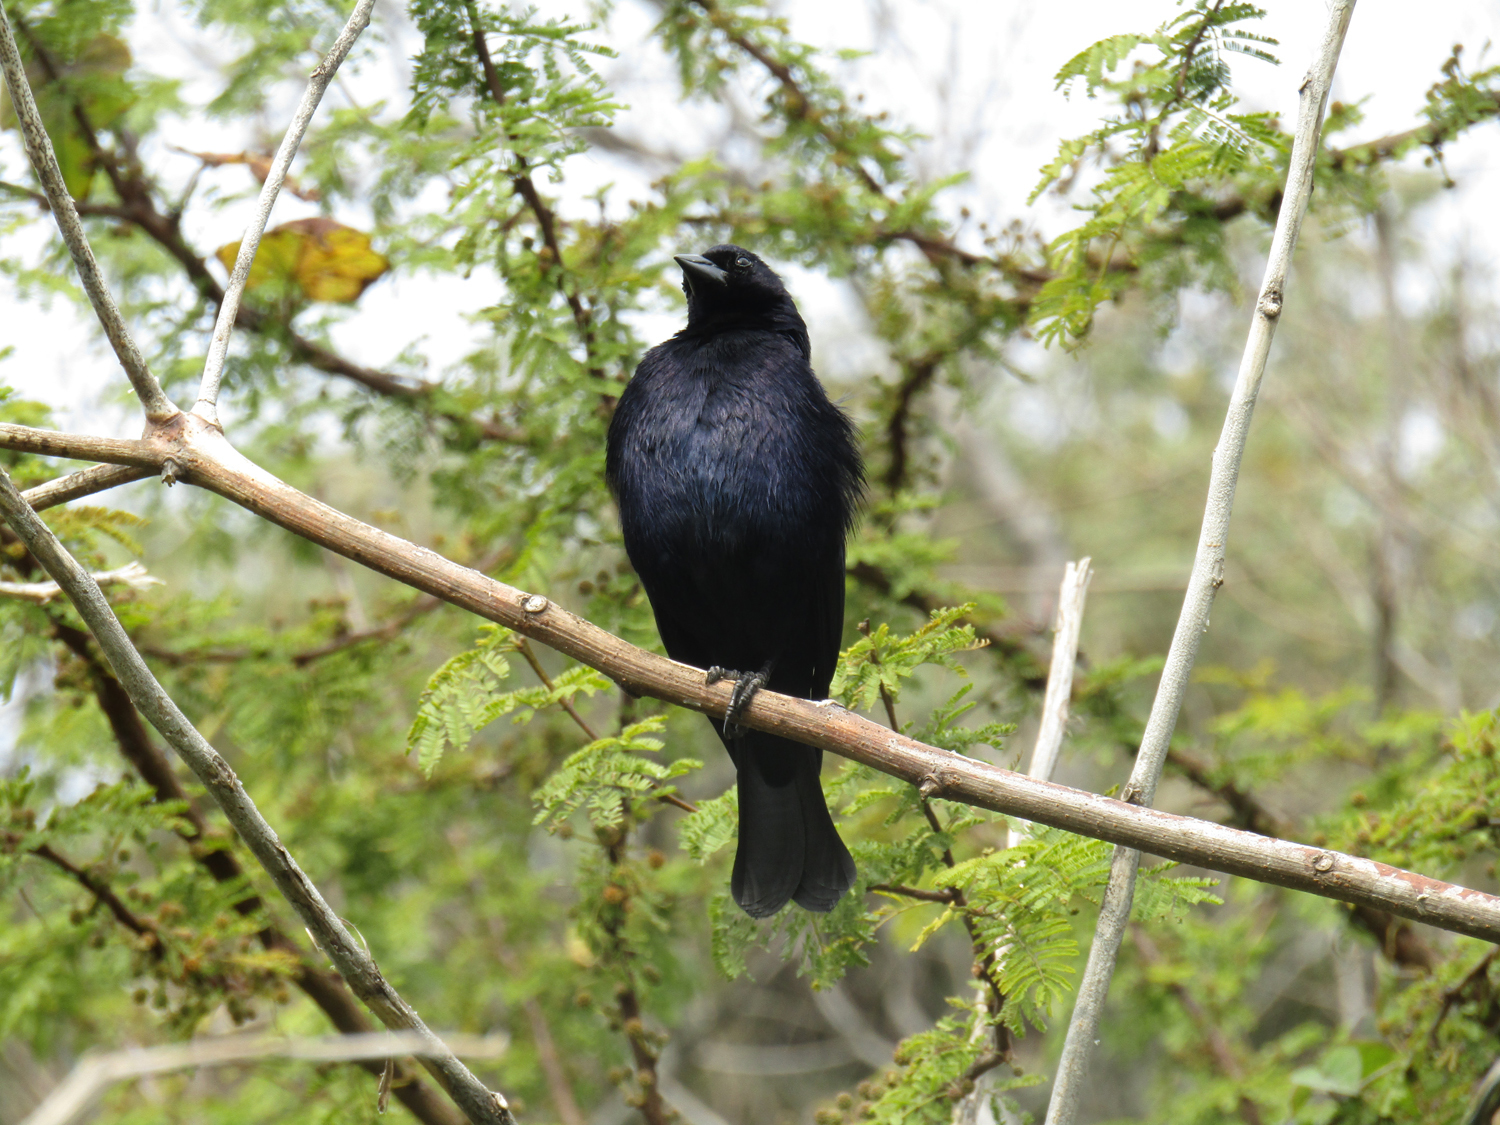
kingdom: Animalia
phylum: Chordata
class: Aves
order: Passeriformes
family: Icteridae
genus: Molothrus
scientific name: Molothrus bonariensis
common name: Shiny cowbird
